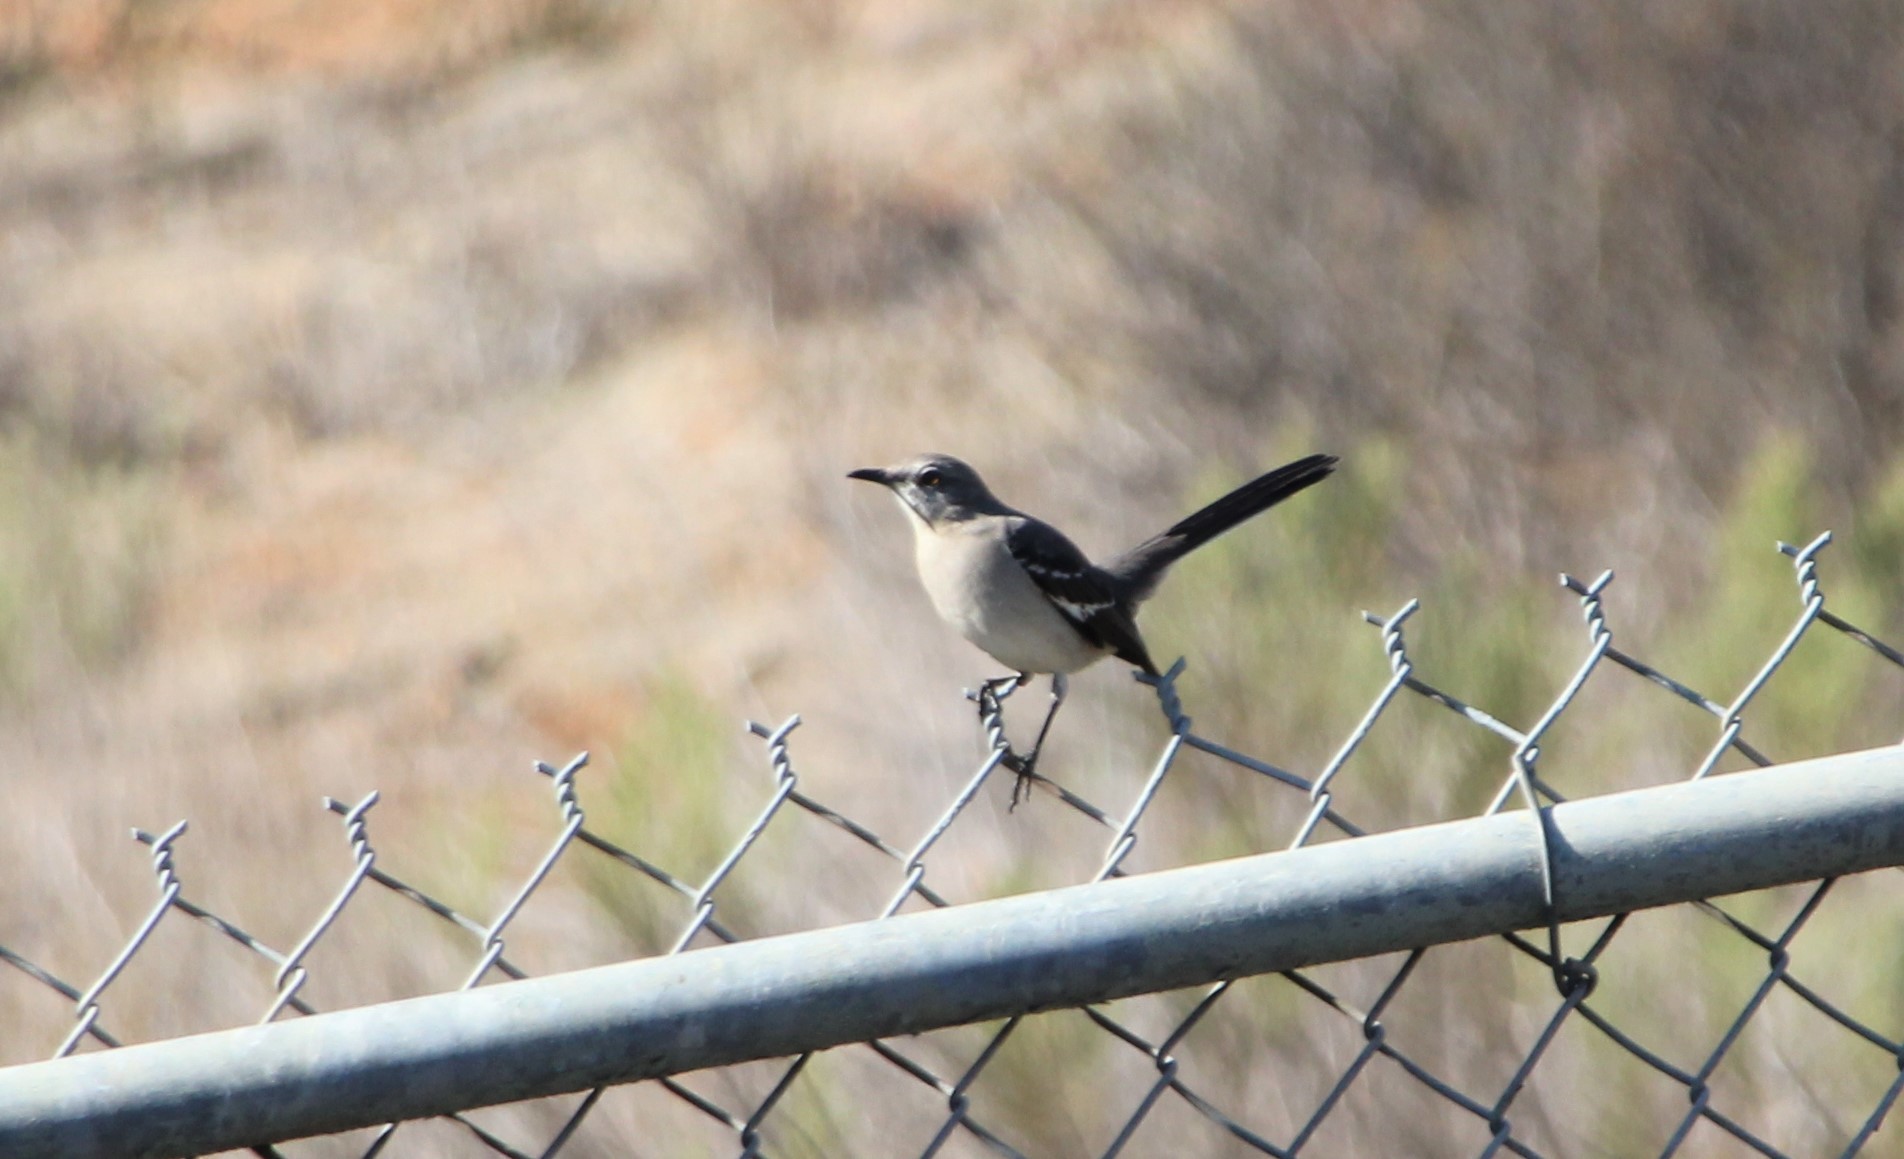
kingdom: Animalia
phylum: Chordata
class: Aves
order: Passeriformes
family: Mimidae
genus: Mimus
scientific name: Mimus polyglottos
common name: Northern mockingbird
